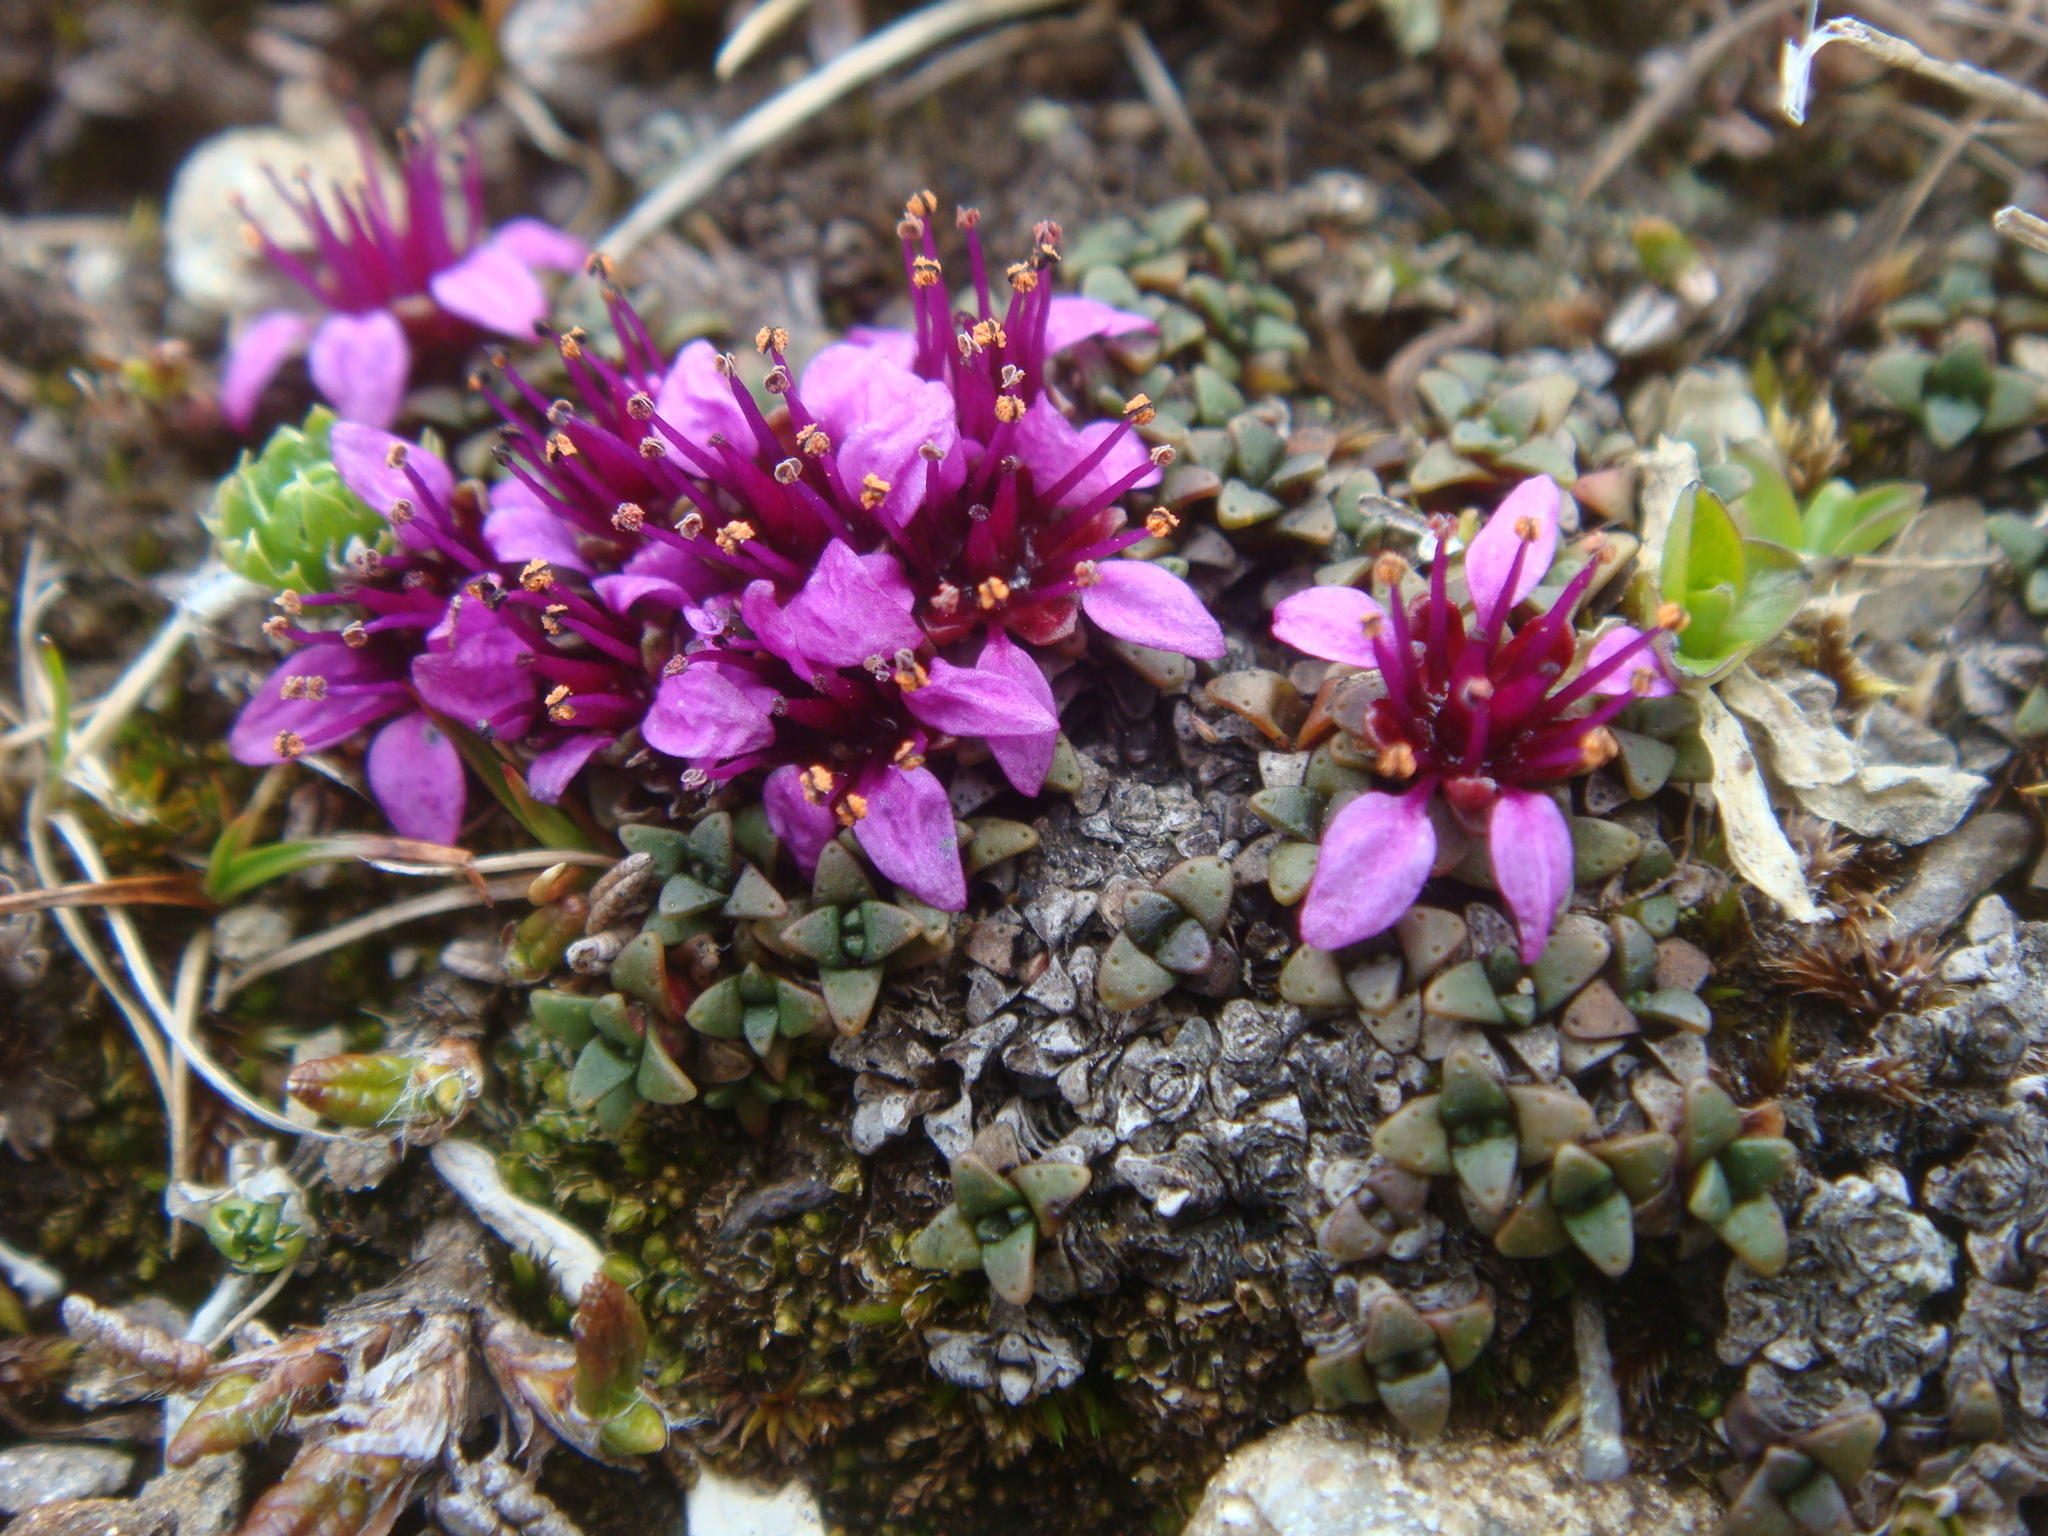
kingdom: Plantae
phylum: Tracheophyta
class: Magnoliopsida
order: Saxifragales
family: Saxifragaceae
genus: Saxifraga
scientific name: Saxifraga retusa
